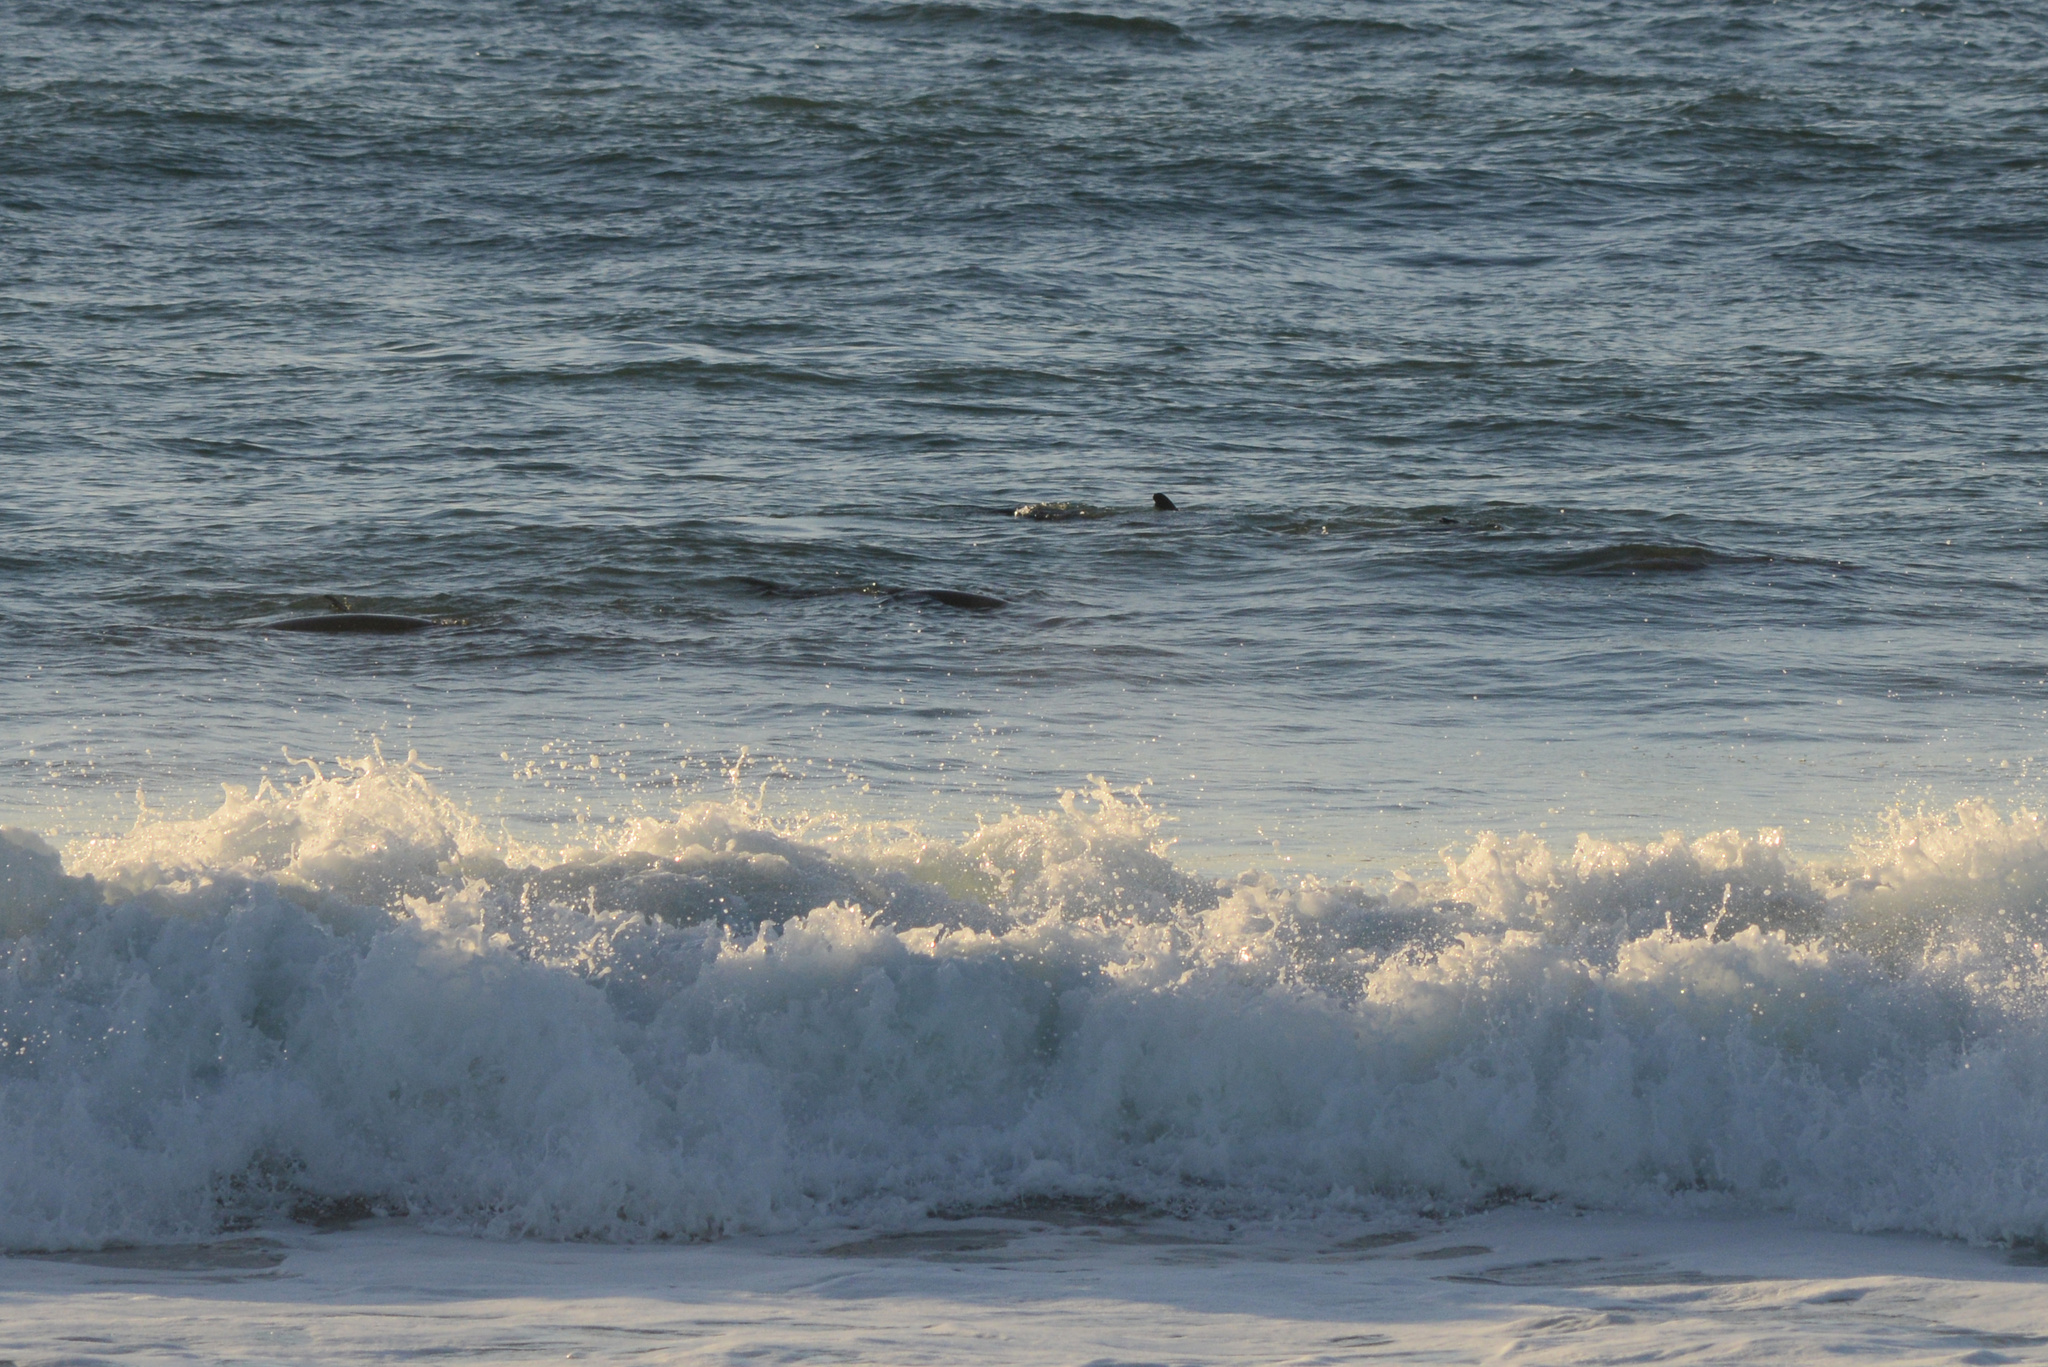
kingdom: Animalia
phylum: Chordata
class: Mammalia
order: Carnivora
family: Phocidae
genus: Phoca
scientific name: Phoca vitulina
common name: Harbor seal
